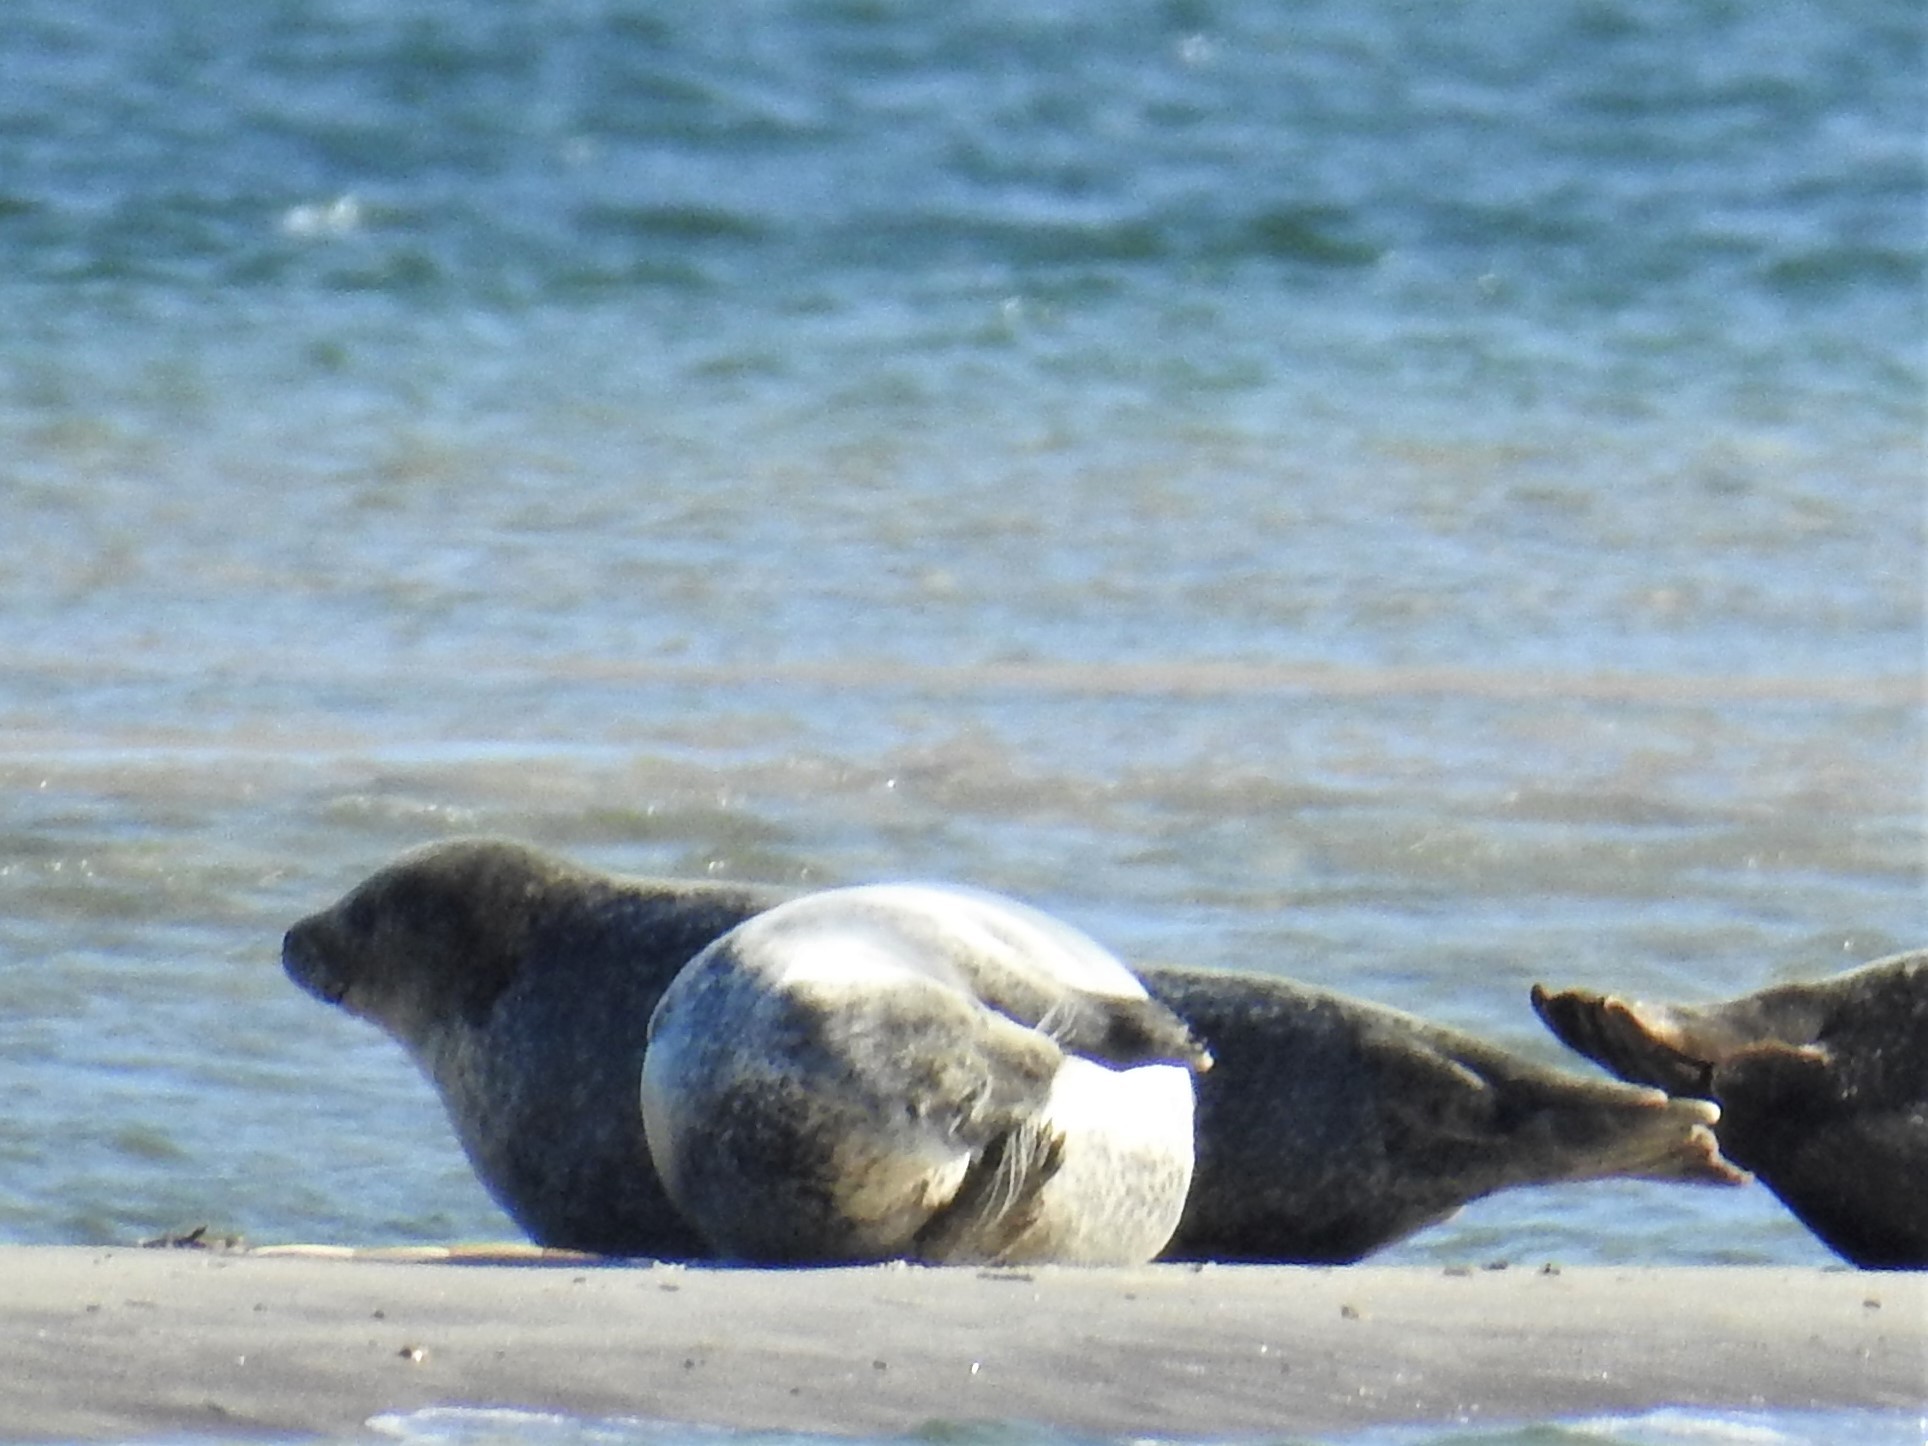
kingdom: Animalia
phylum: Chordata
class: Mammalia
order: Carnivora
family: Phocidae
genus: Phoca
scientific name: Phoca vitulina
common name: Harbor seal
